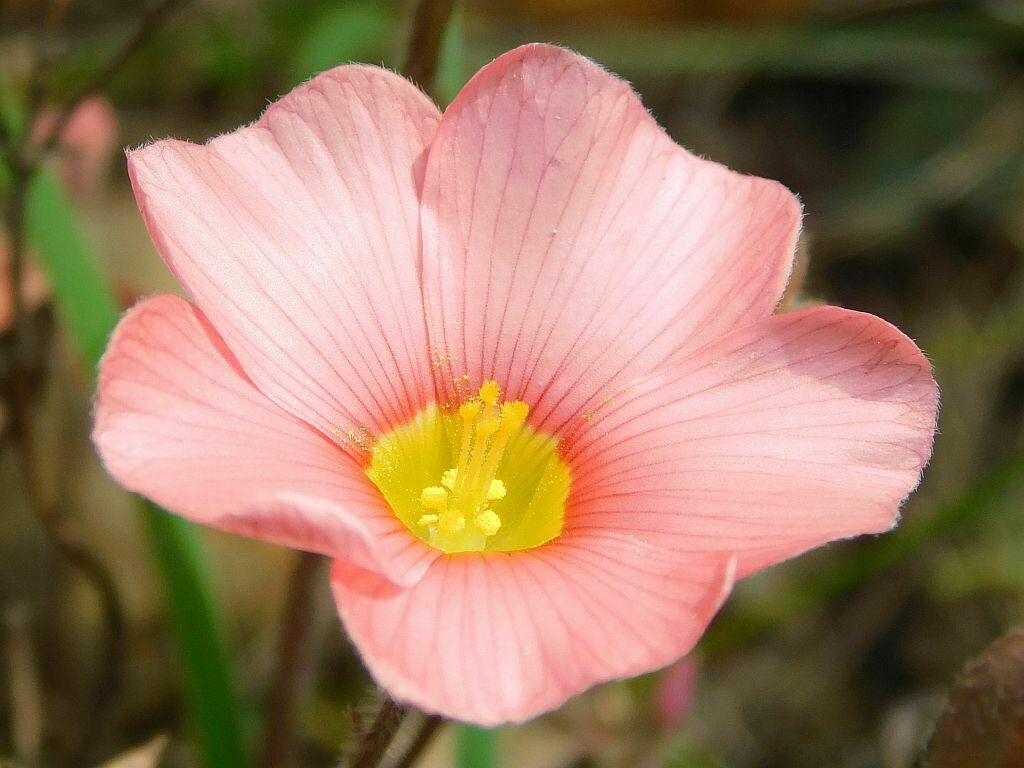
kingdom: Plantae
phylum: Tracheophyta
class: Magnoliopsida
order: Oxalidales
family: Oxalidaceae
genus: Oxalis
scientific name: Oxalis obtusa
